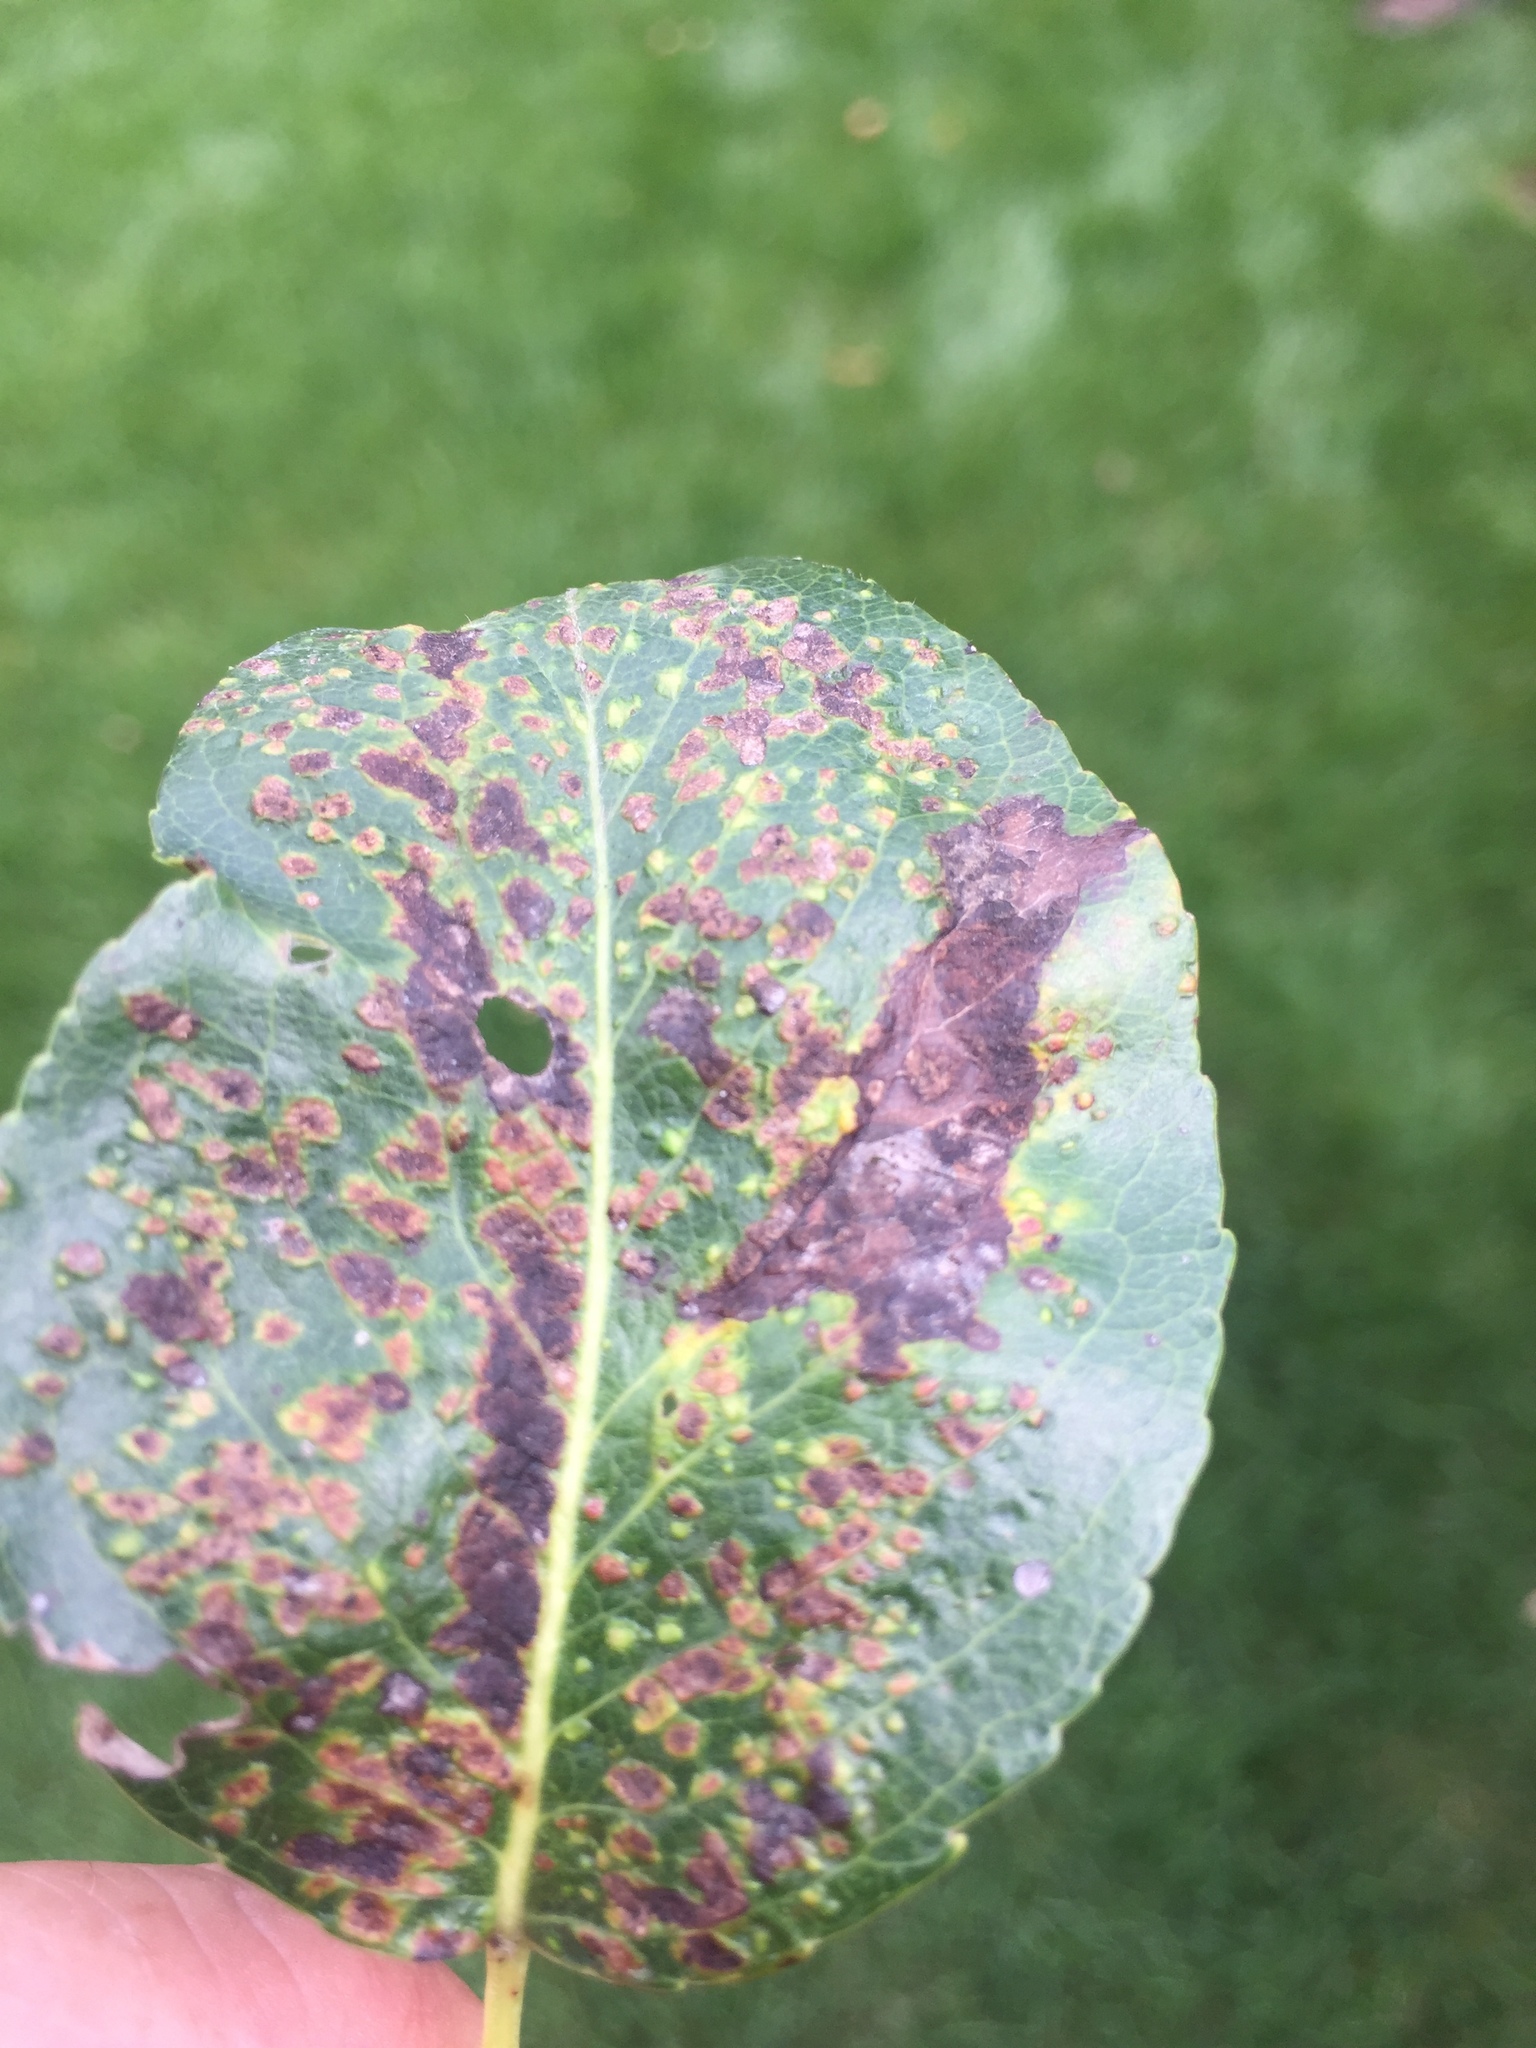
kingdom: Animalia
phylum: Arthropoda
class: Arachnida
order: Trombidiformes
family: Eriophyidae
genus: Eriophyes
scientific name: Eriophyes pyri
